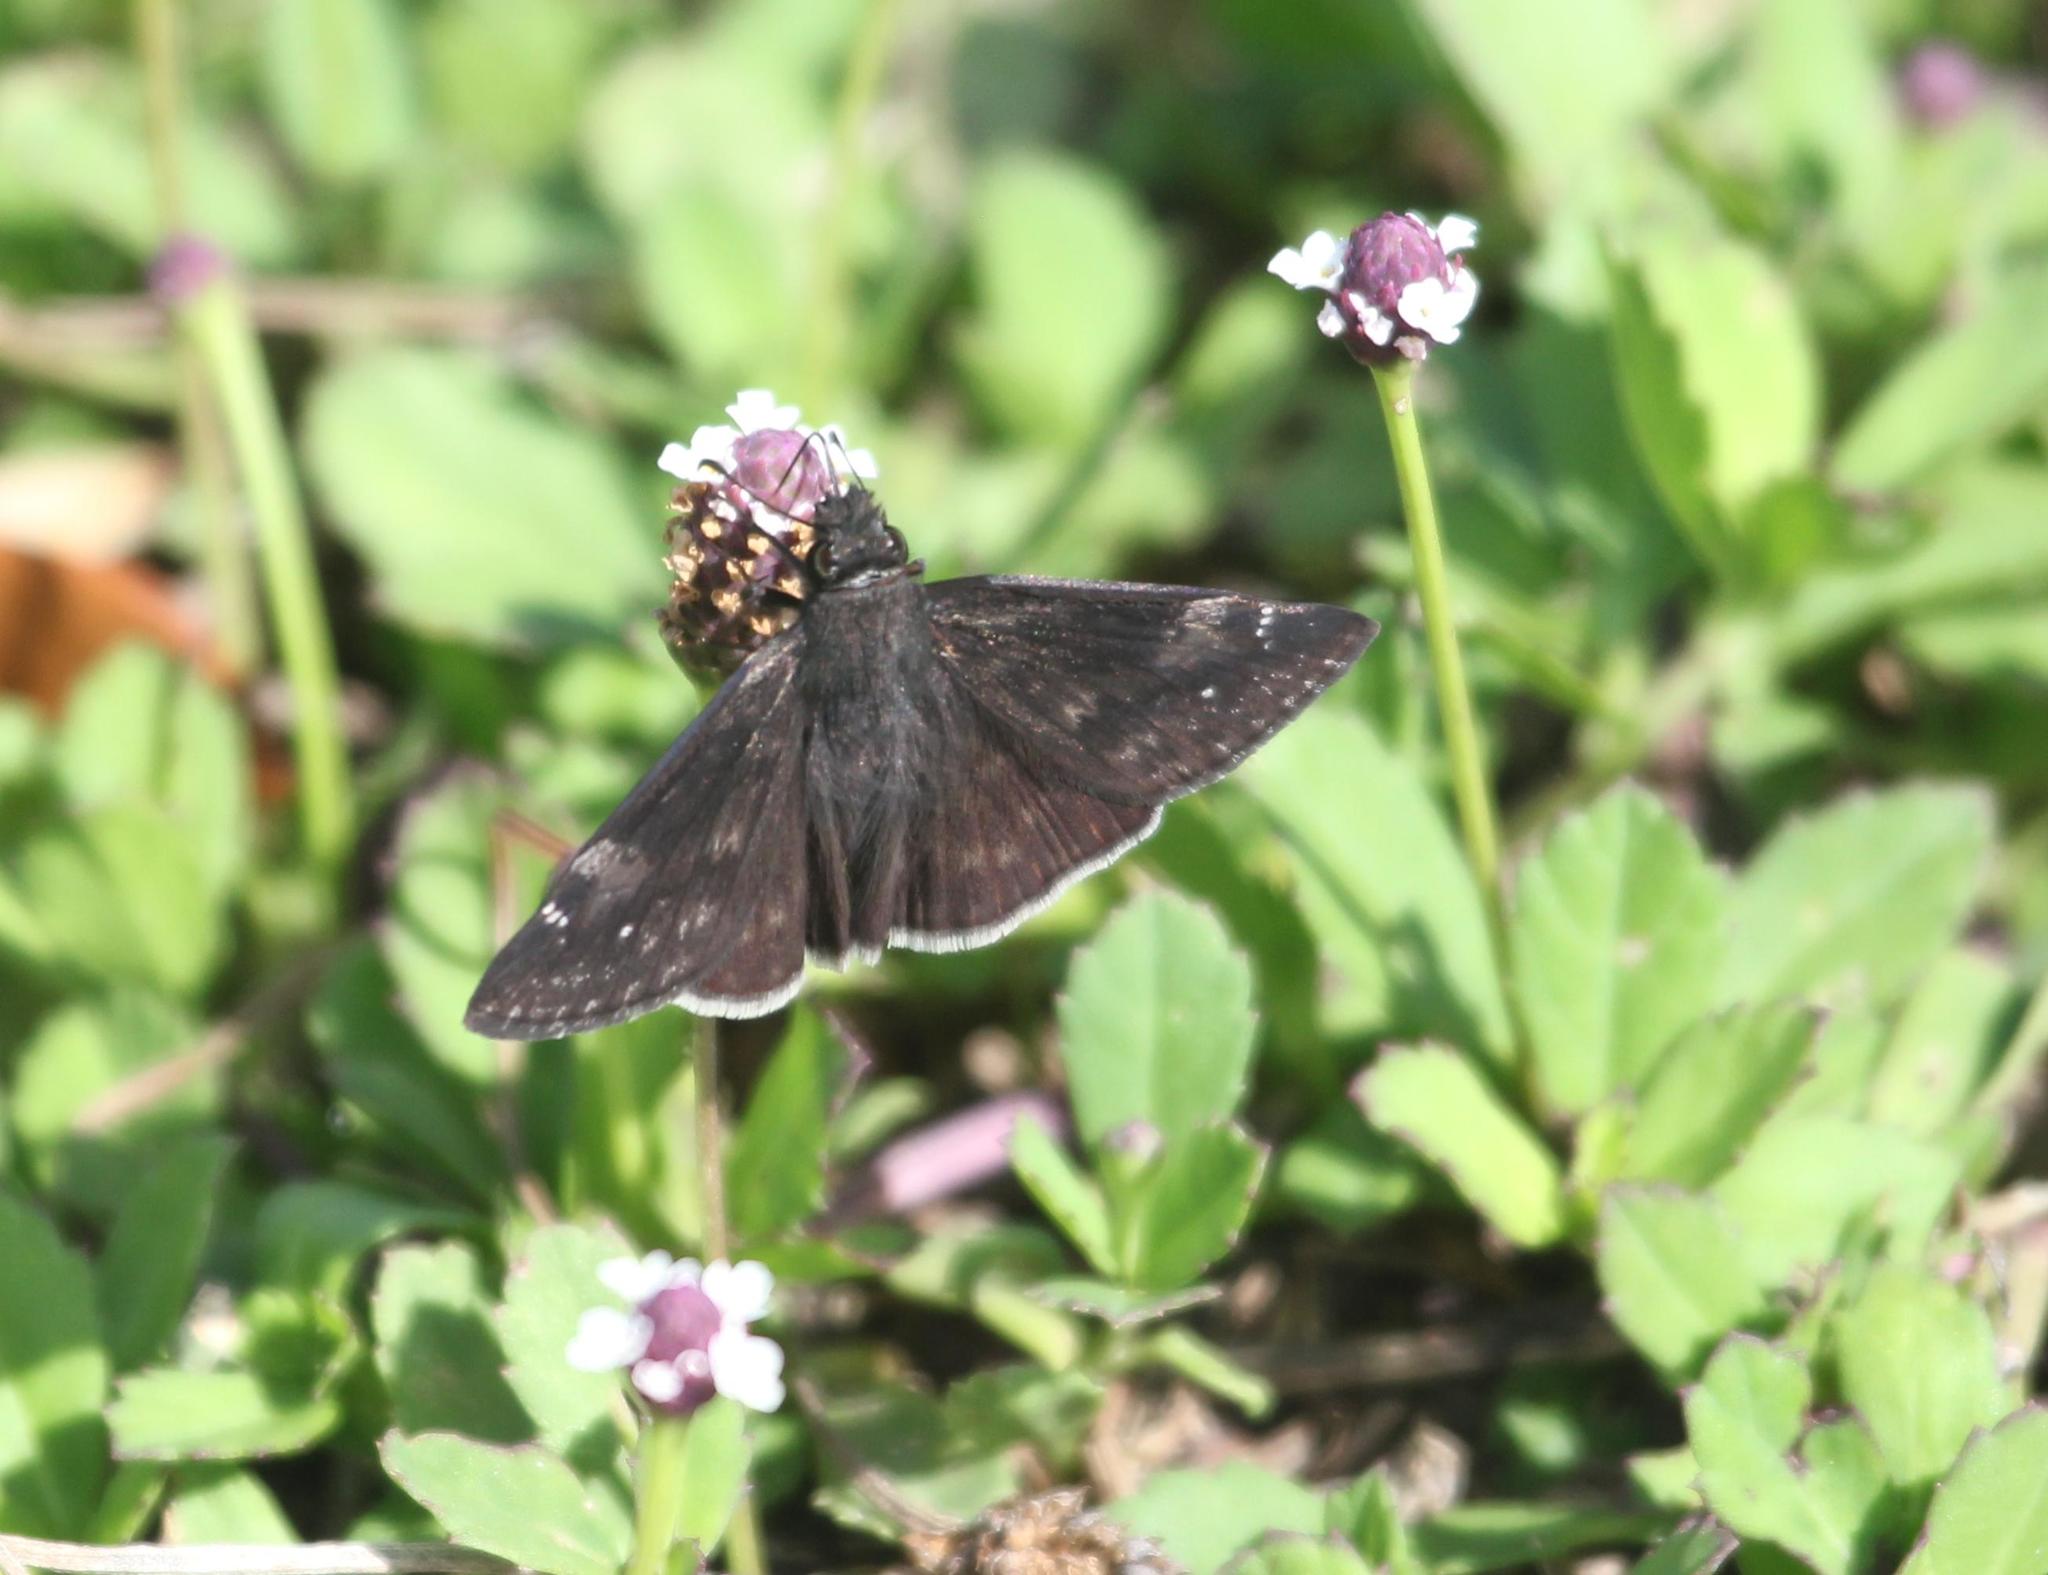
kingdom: Animalia
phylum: Arthropoda
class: Insecta
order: Lepidoptera
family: Hesperiidae
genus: Erynnis
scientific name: Erynnis funeralis
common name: Funereal duskywing
